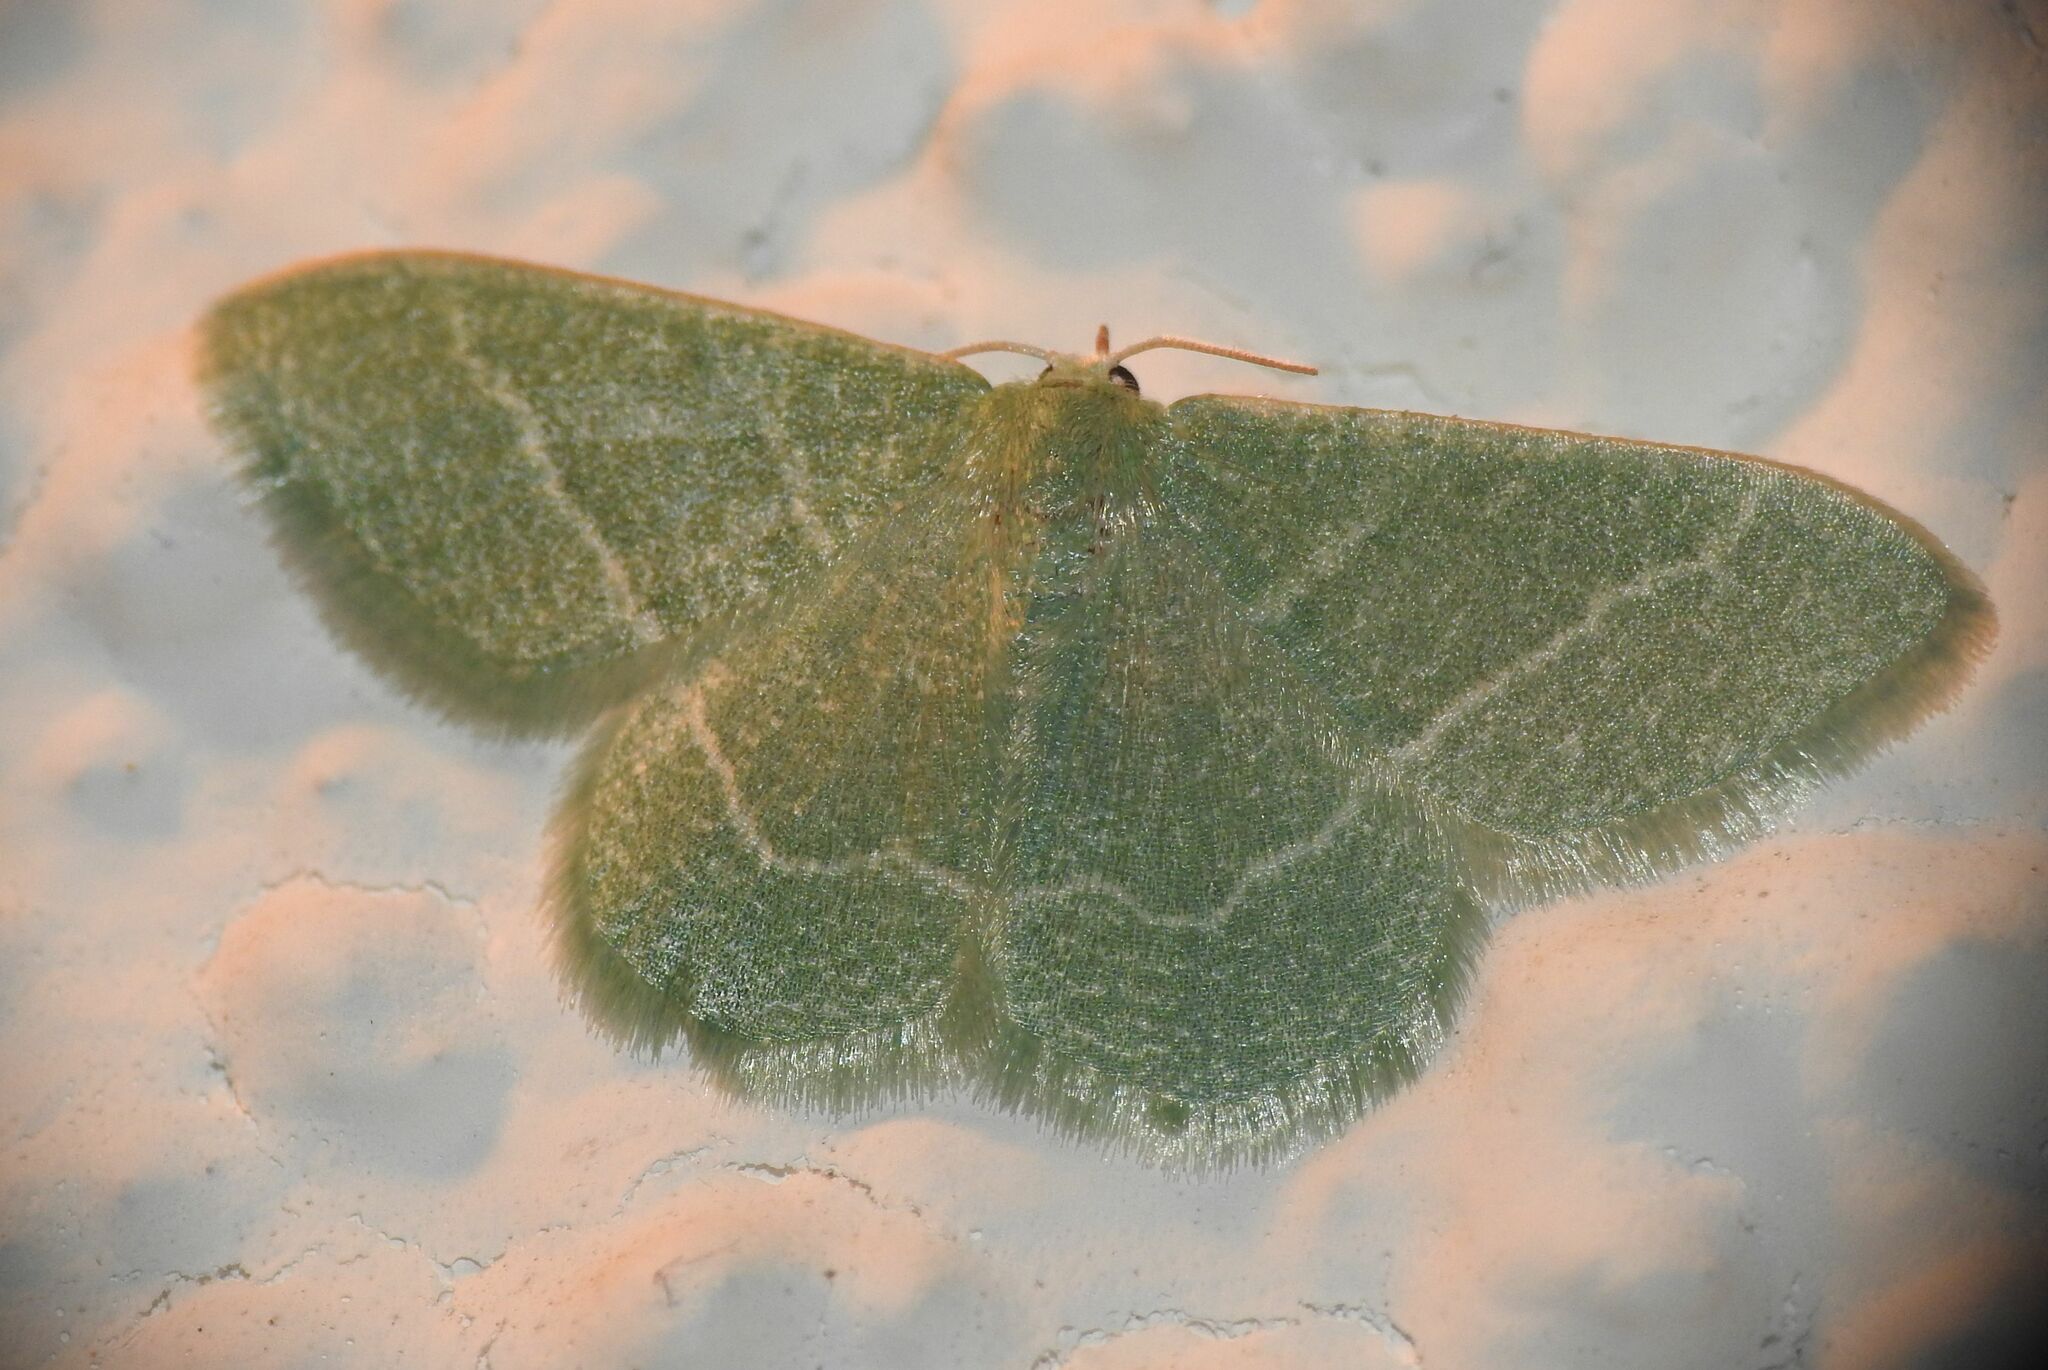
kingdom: Animalia
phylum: Arthropoda
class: Insecta
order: Lepidoptera
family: Geometridae
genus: Chlorissa
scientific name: Chlorissa etruscaria
